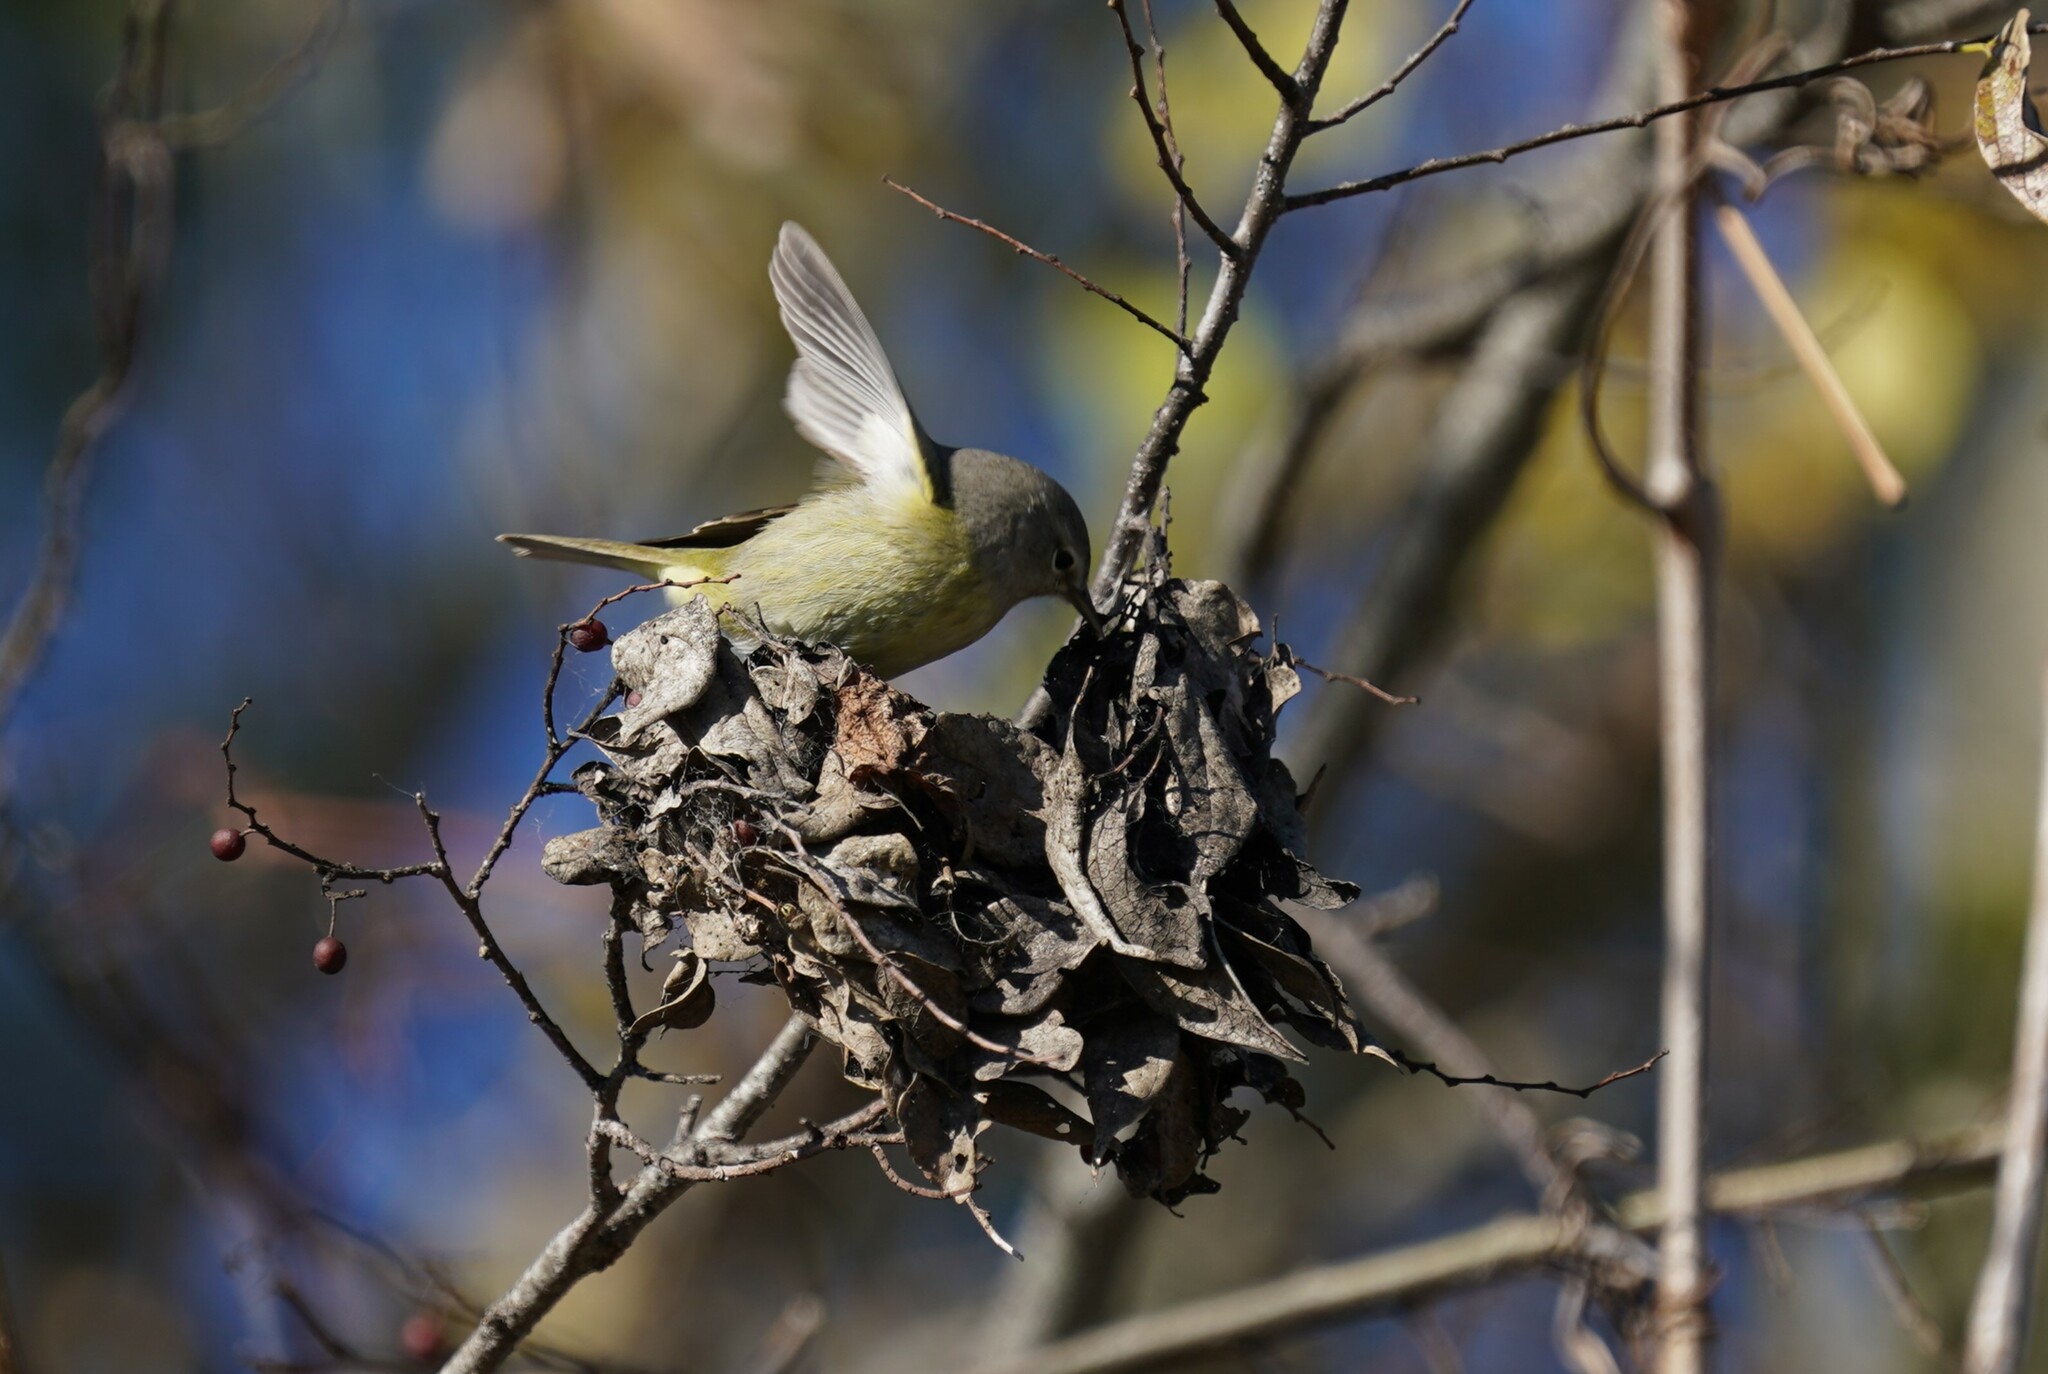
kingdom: Animalia
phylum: Chordata
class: Aves
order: Passeriformes
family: Parulidae
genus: Leiothlypis
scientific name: Leiothlypis celata
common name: Orange-crowned warbler
